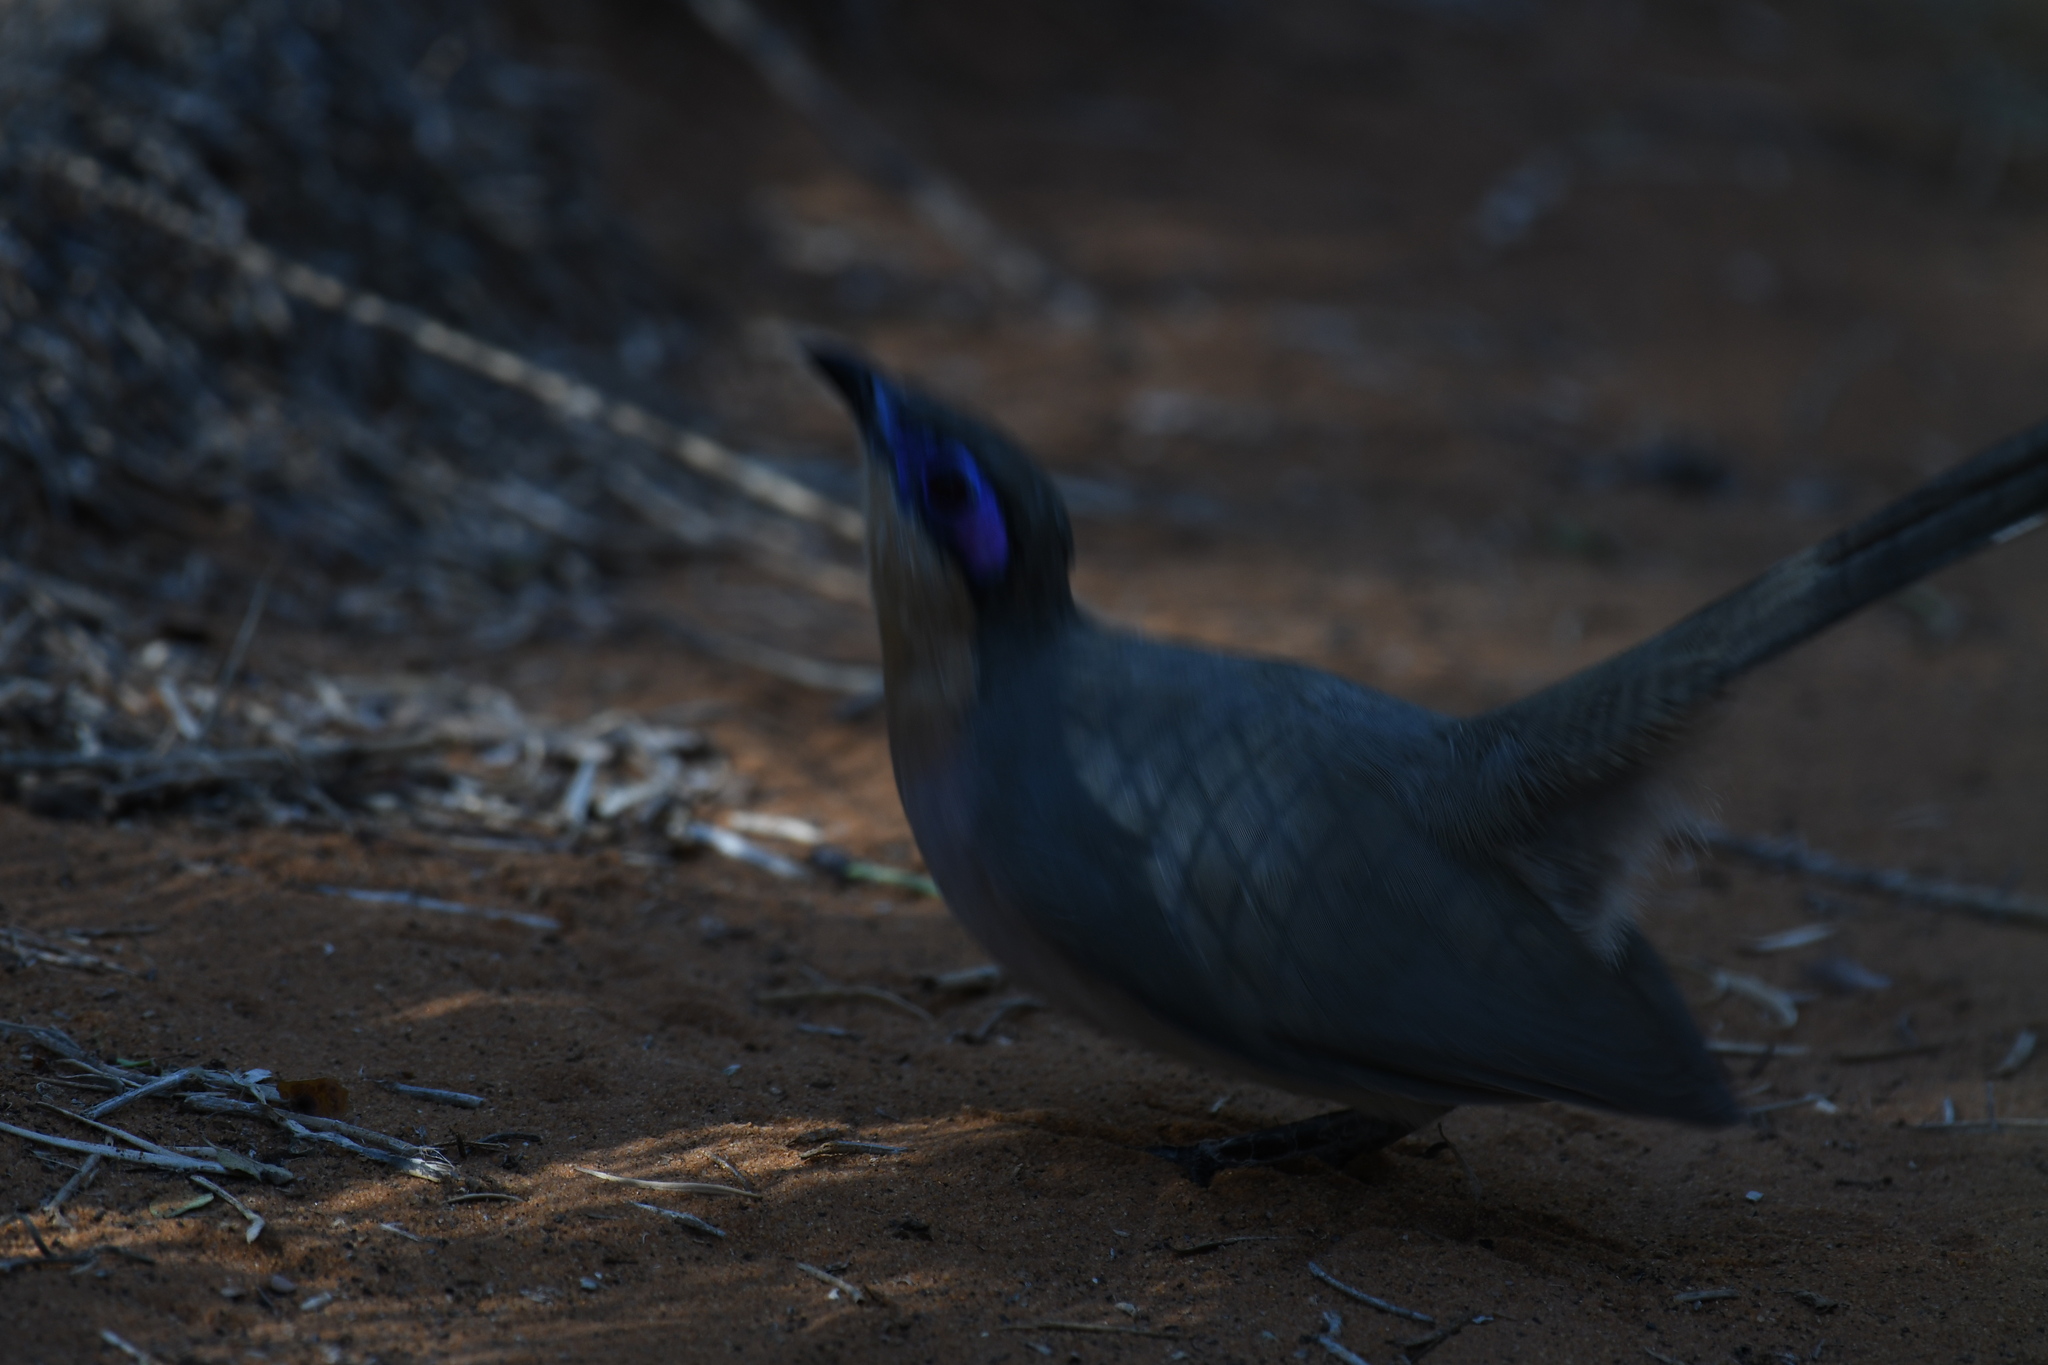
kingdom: Animalia
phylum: Chordata
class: Aves
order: Cuculiformes
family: Cuculidae
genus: Coua
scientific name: Coua cursor
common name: Running coua
